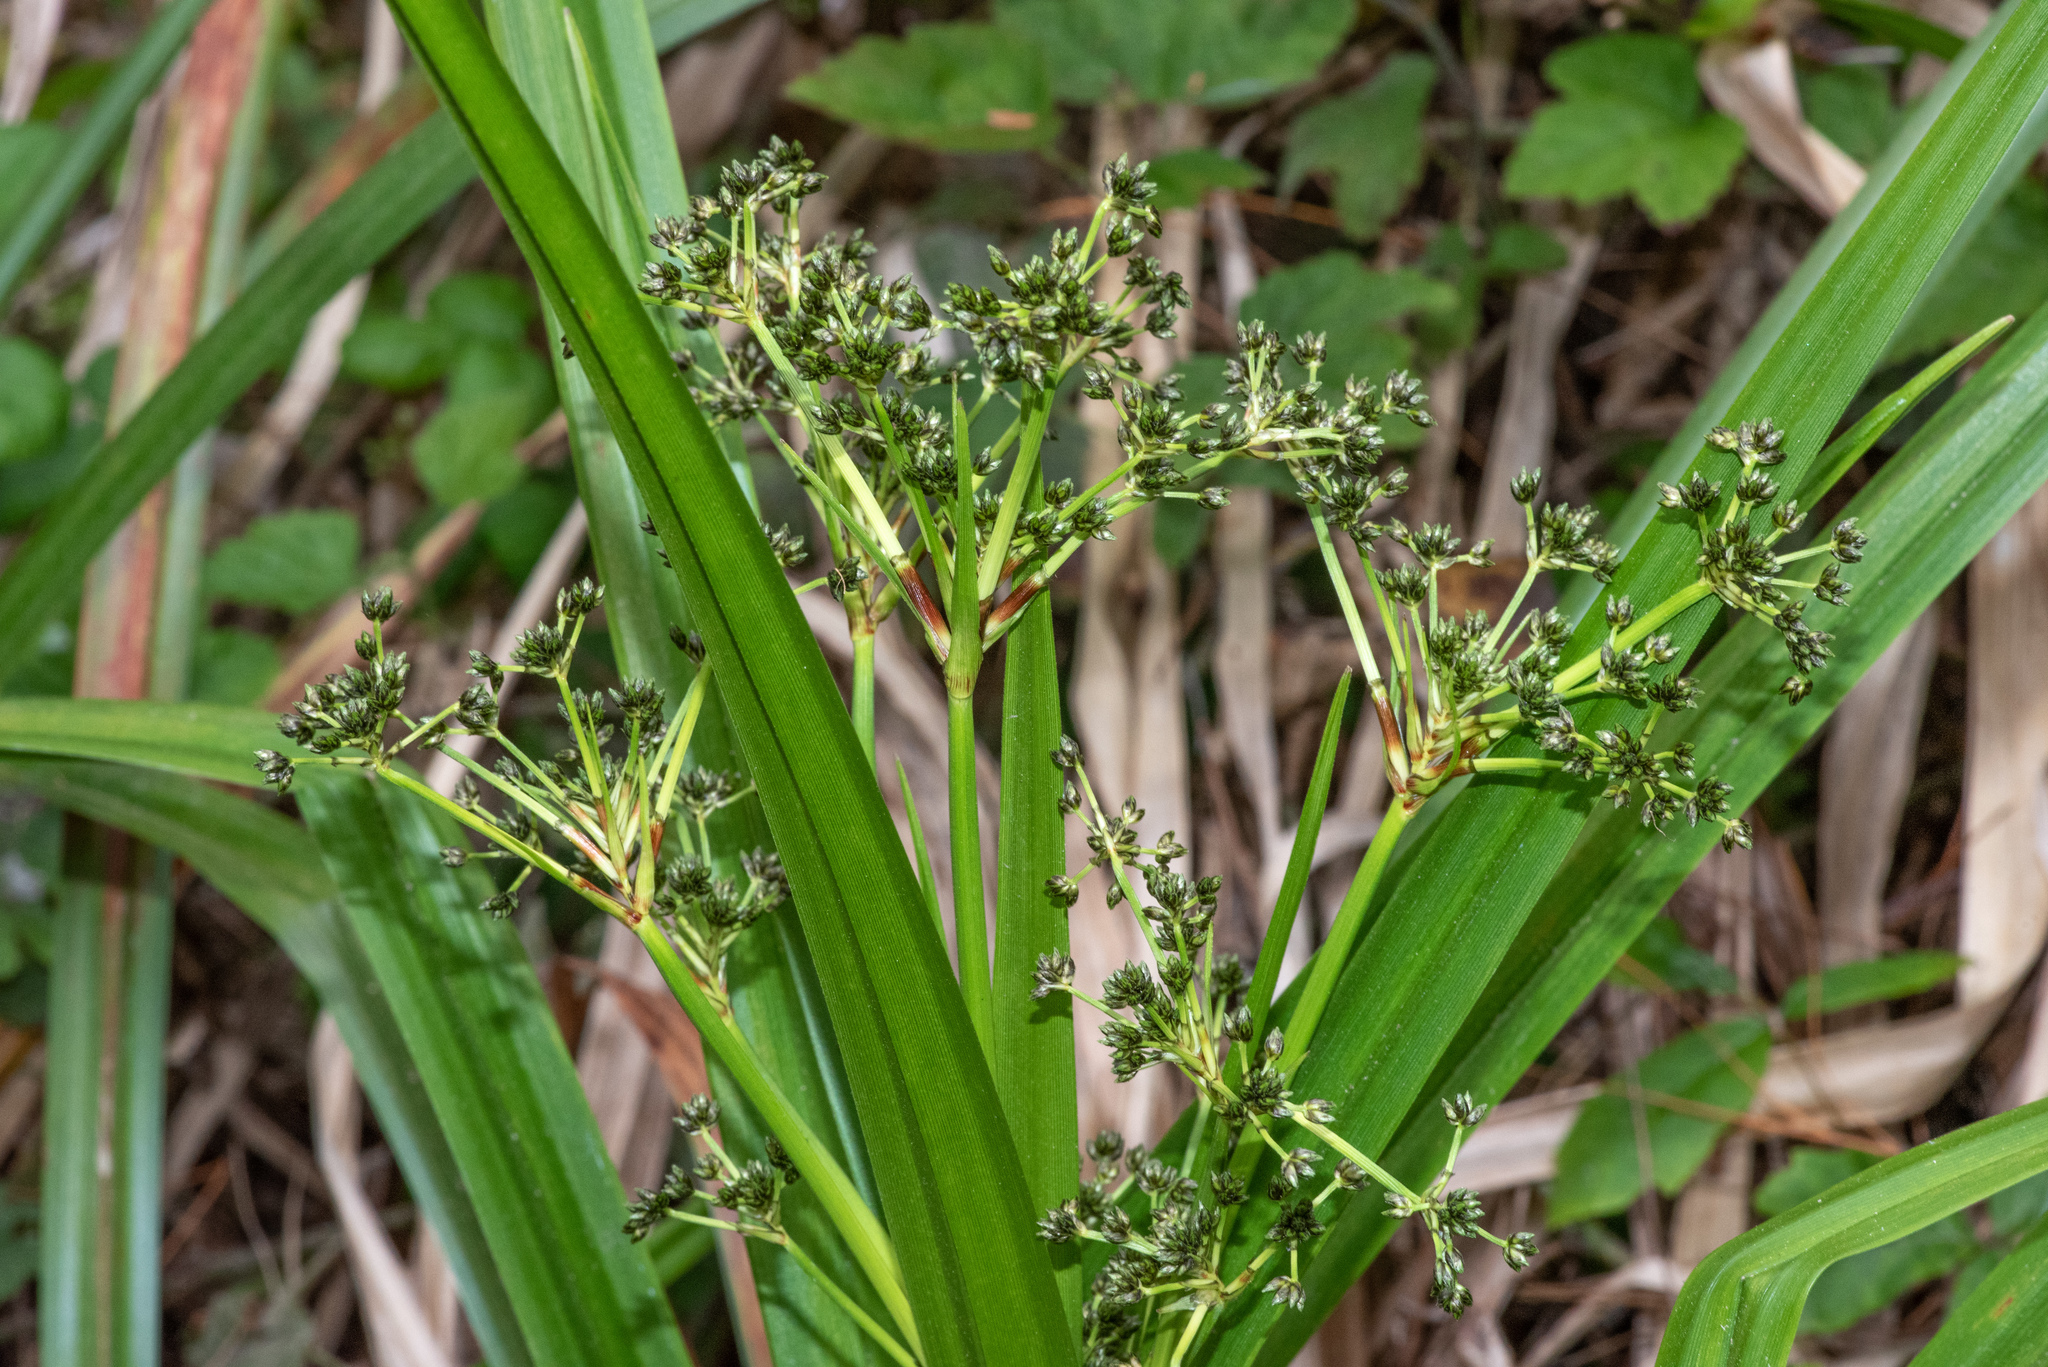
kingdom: Plantae
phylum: Tracheophyta
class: Liliopsida
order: Poales
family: Cyperaceae
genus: Scirpus
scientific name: Scirpus microcarpus
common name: Panicled bulrush
